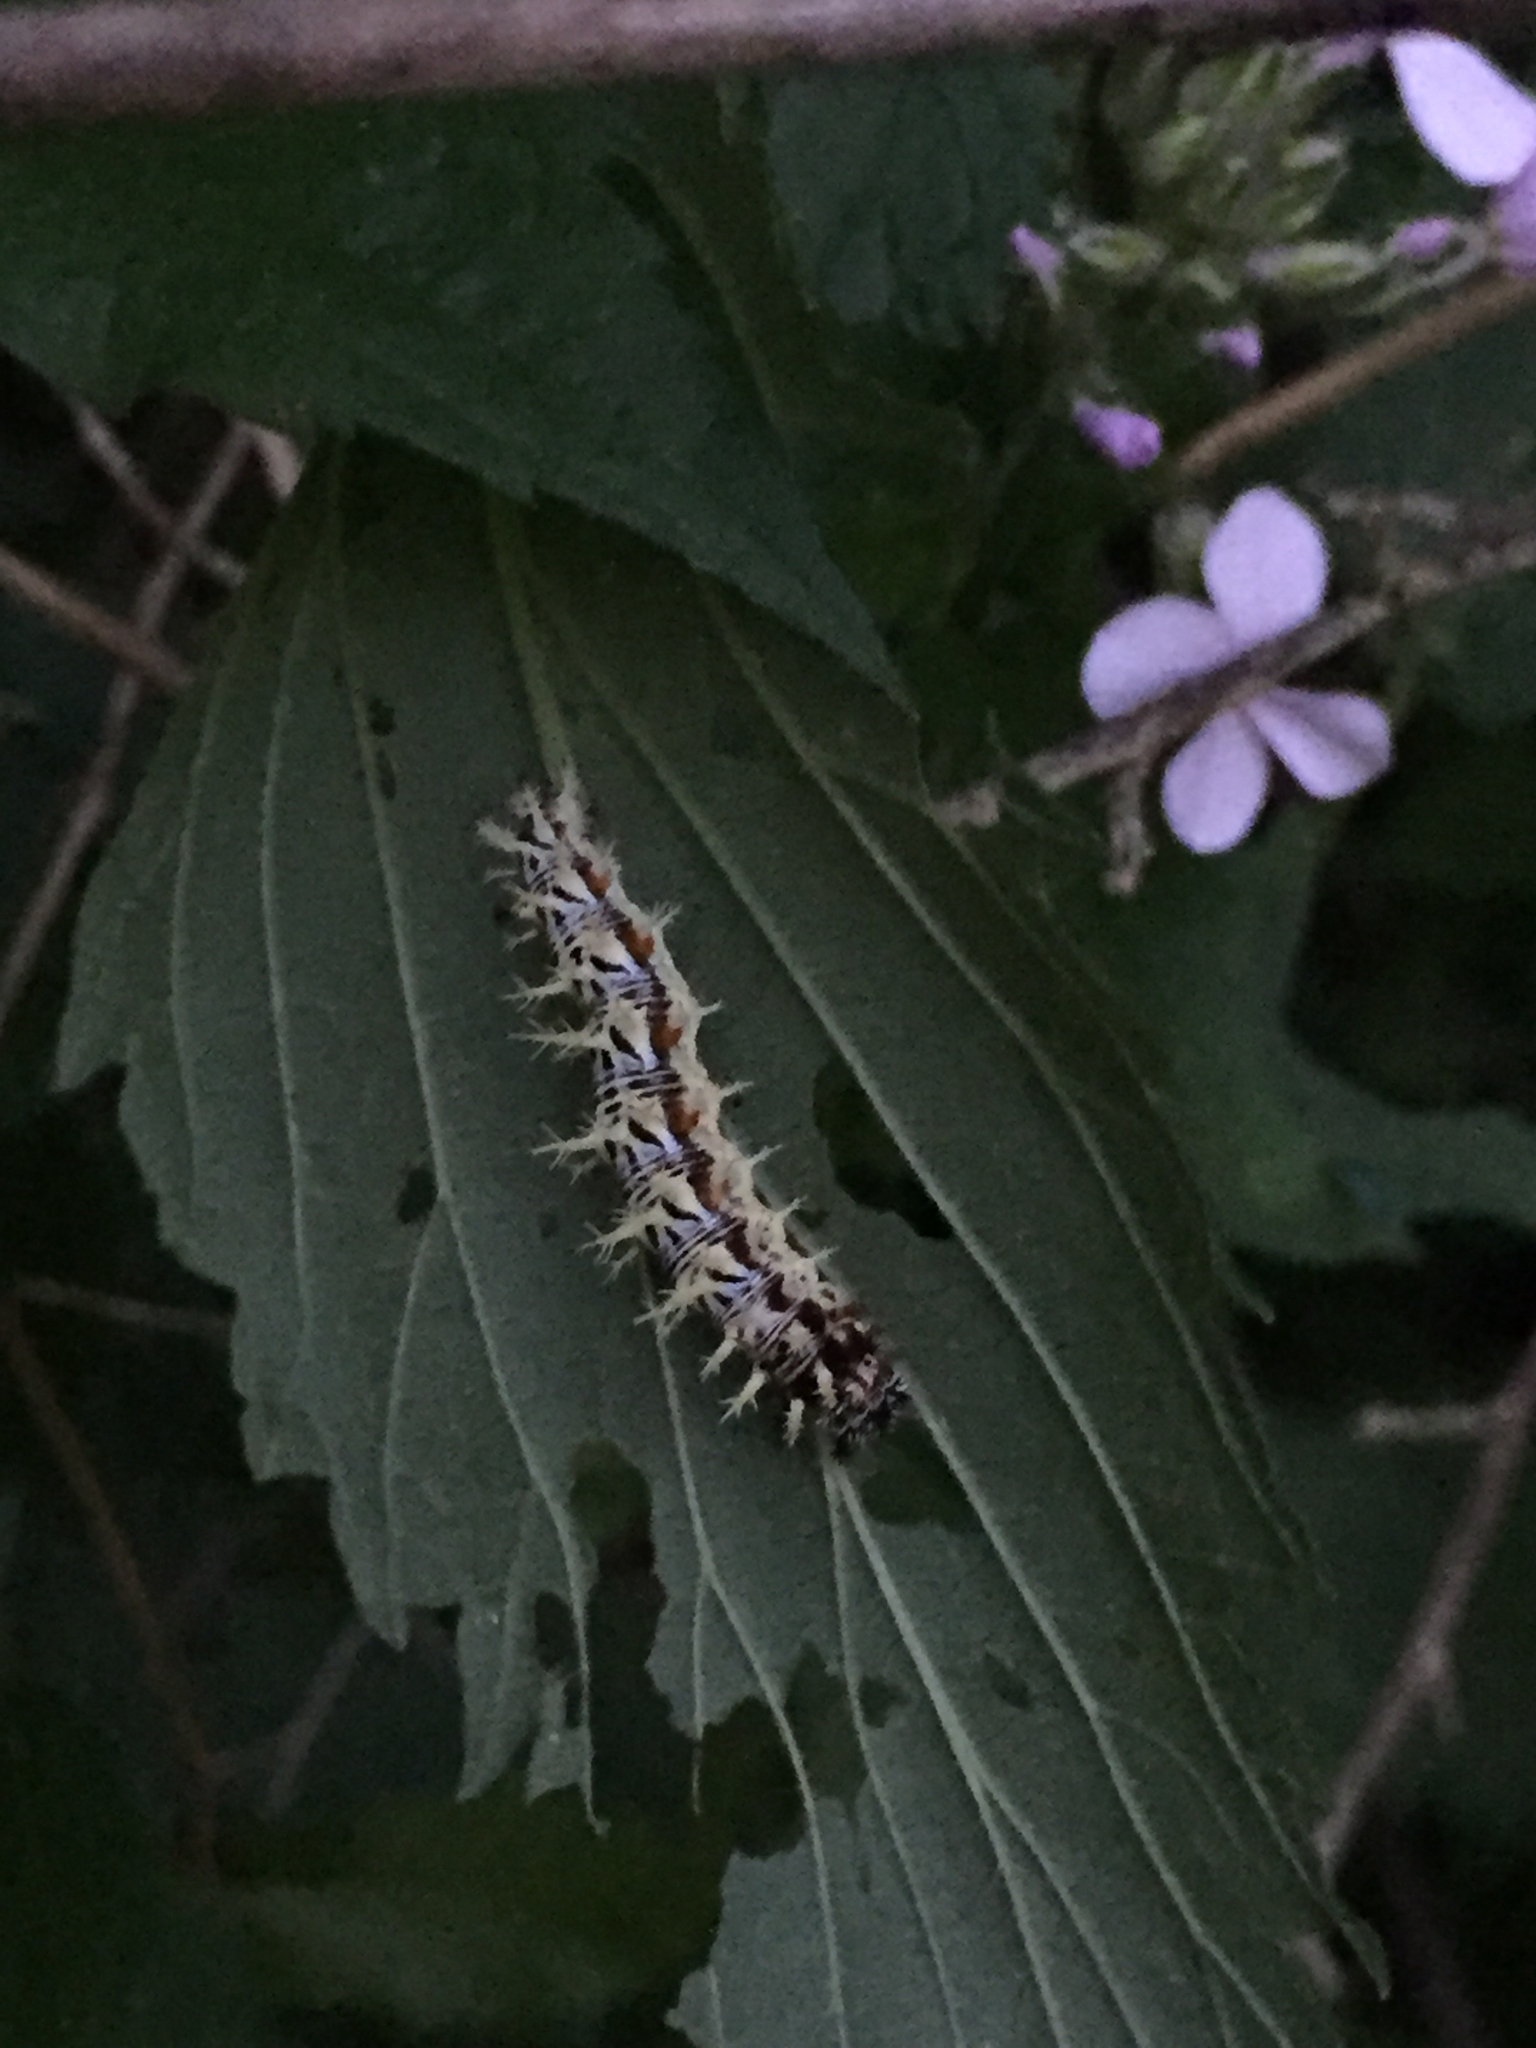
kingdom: Animalia
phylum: Arthropoda
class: Insecta
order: Lepidoptera
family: Nymphalidae
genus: Polygonia
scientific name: Polygonia comma
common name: Eastern comma
